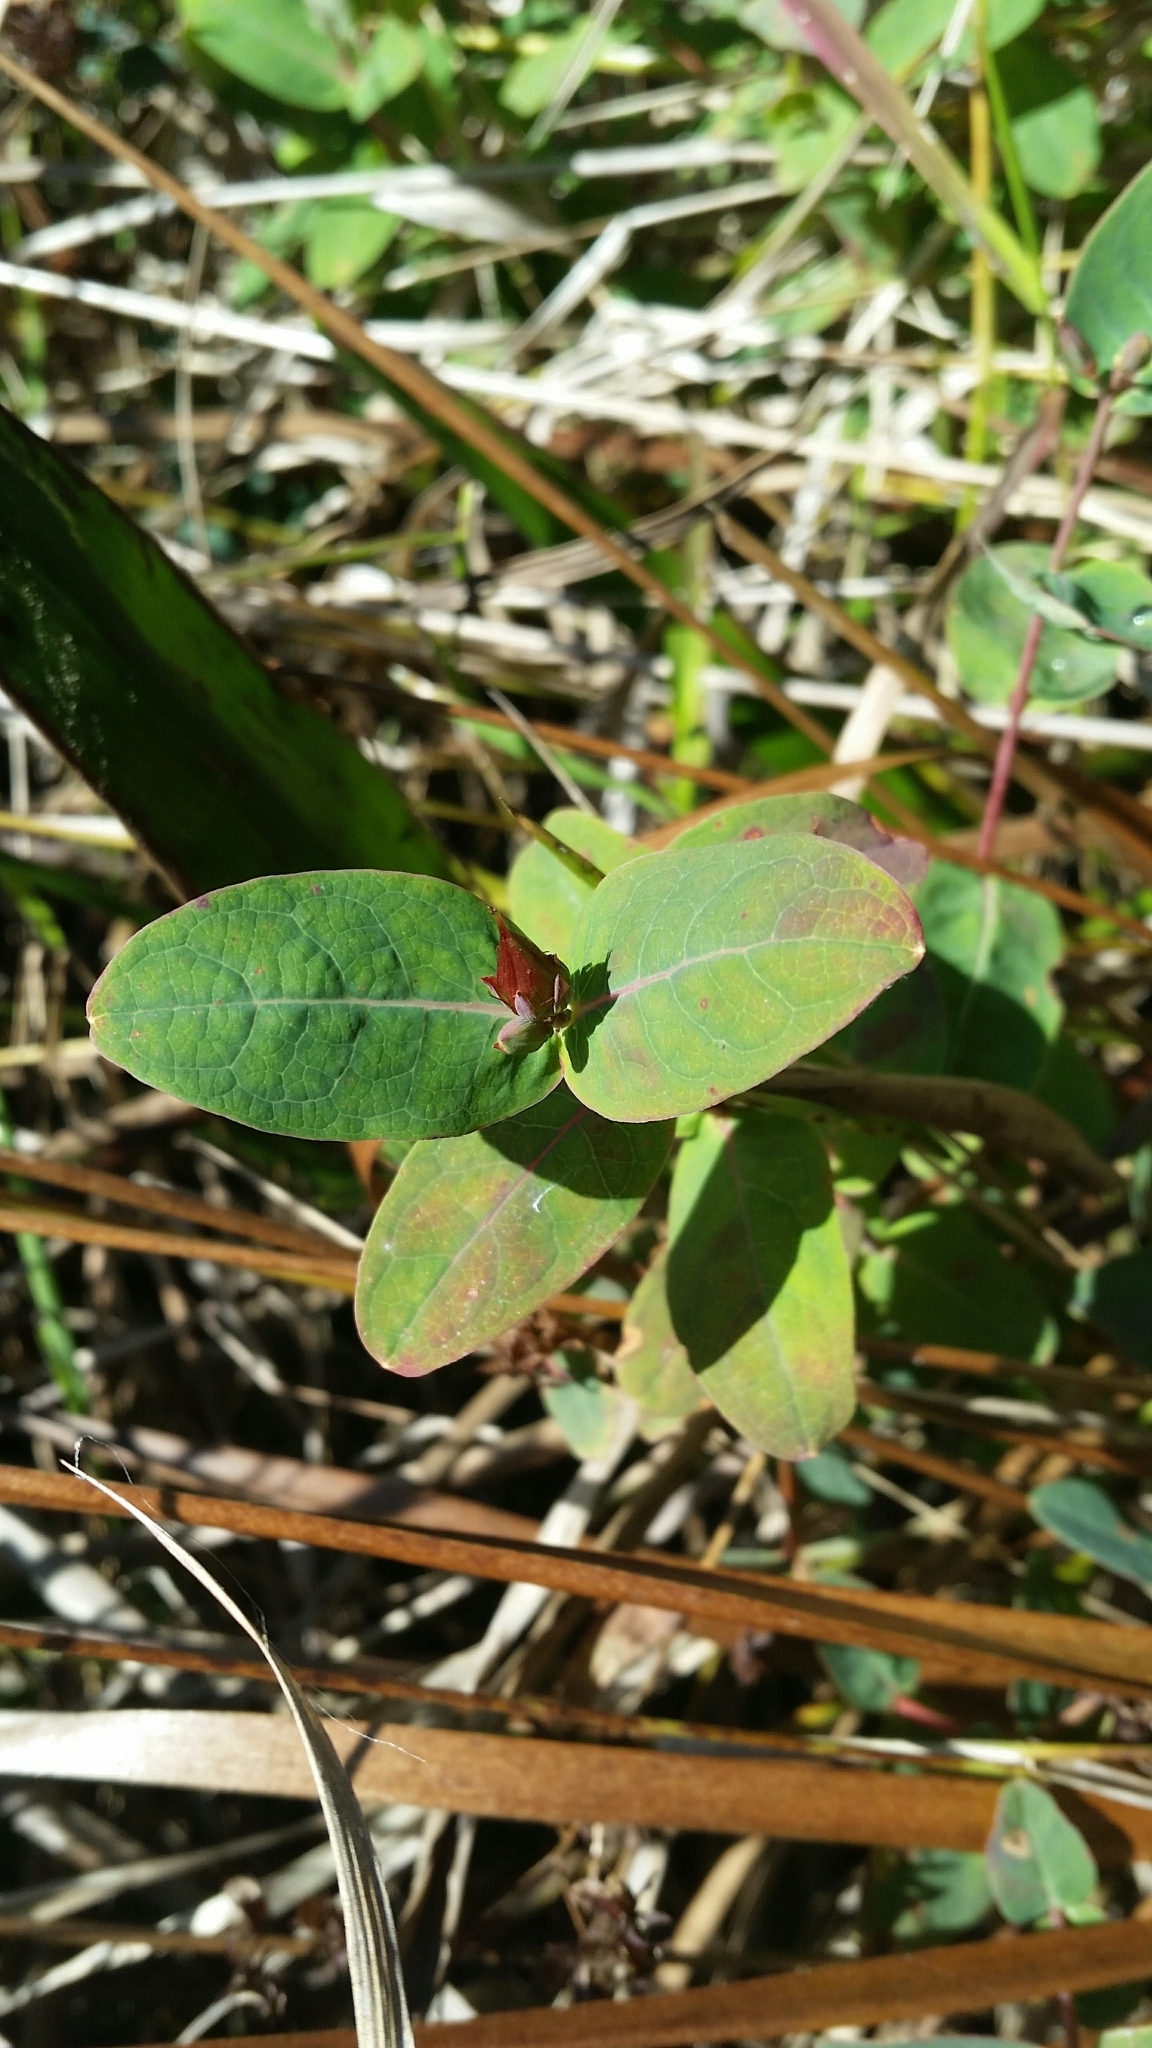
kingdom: Plantae
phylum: Tracheophyta
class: Magnoliopsida
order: Malpighiales
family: Hypericaceae
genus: Triadenum
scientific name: Triadenum virginicum
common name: Marsh st. john's-wort
